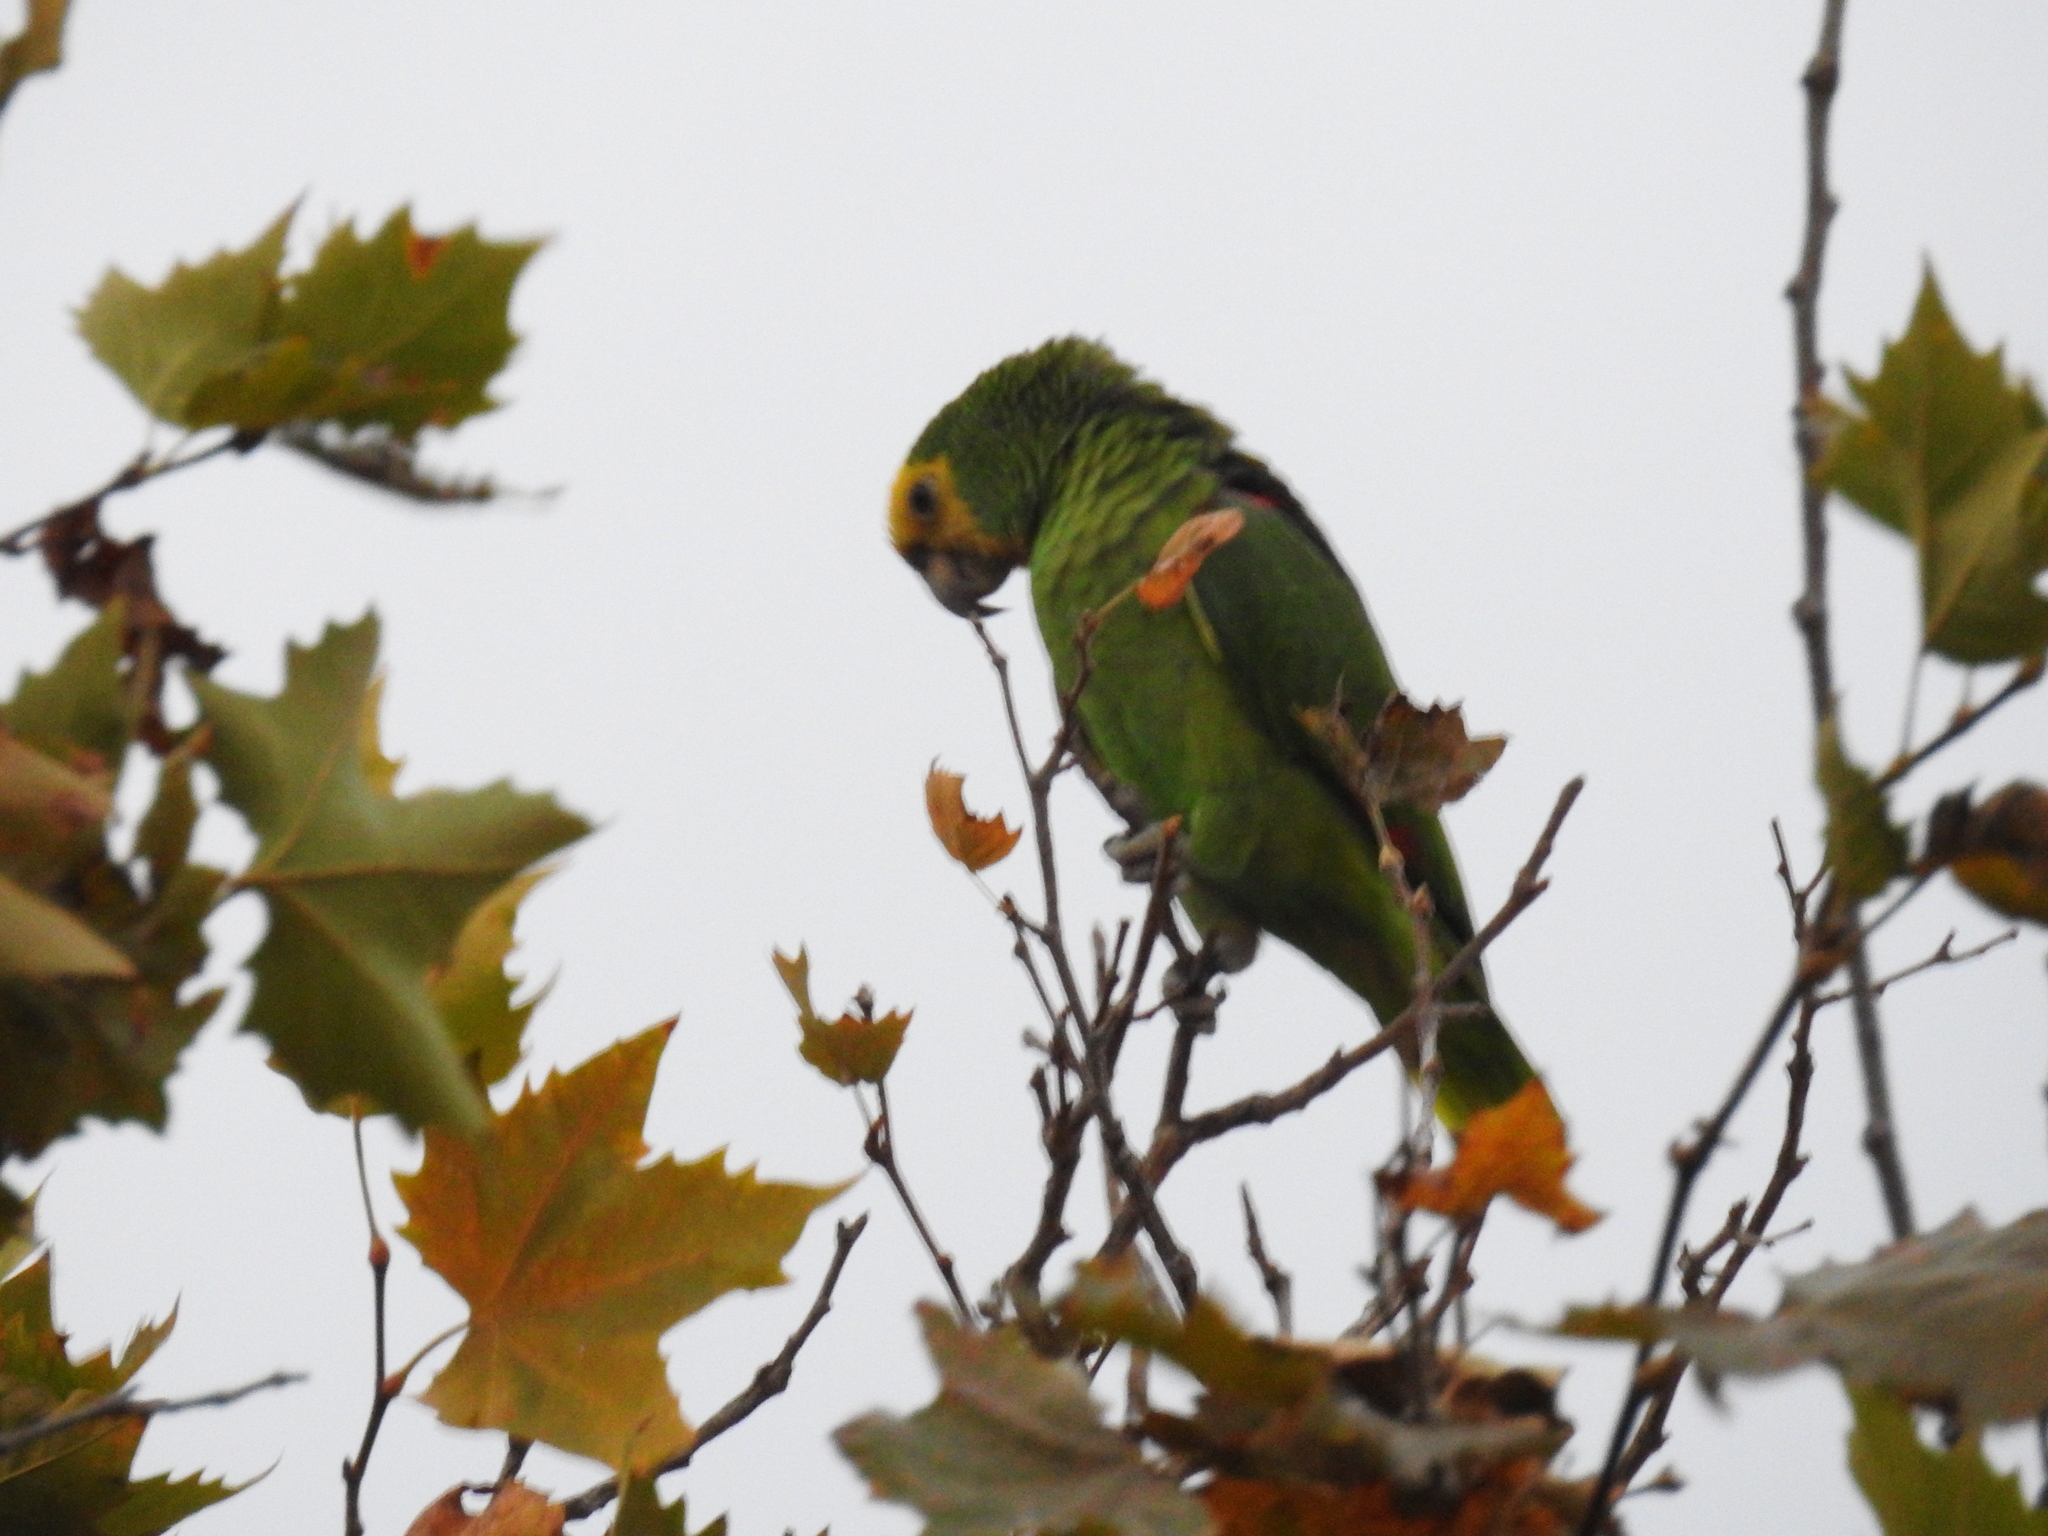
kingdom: Animalia
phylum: Chordata
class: Aves
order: Psittaciformes
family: Psittacidae
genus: Amazona
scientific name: Amazona oratrix
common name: Yellow-headed amazon
